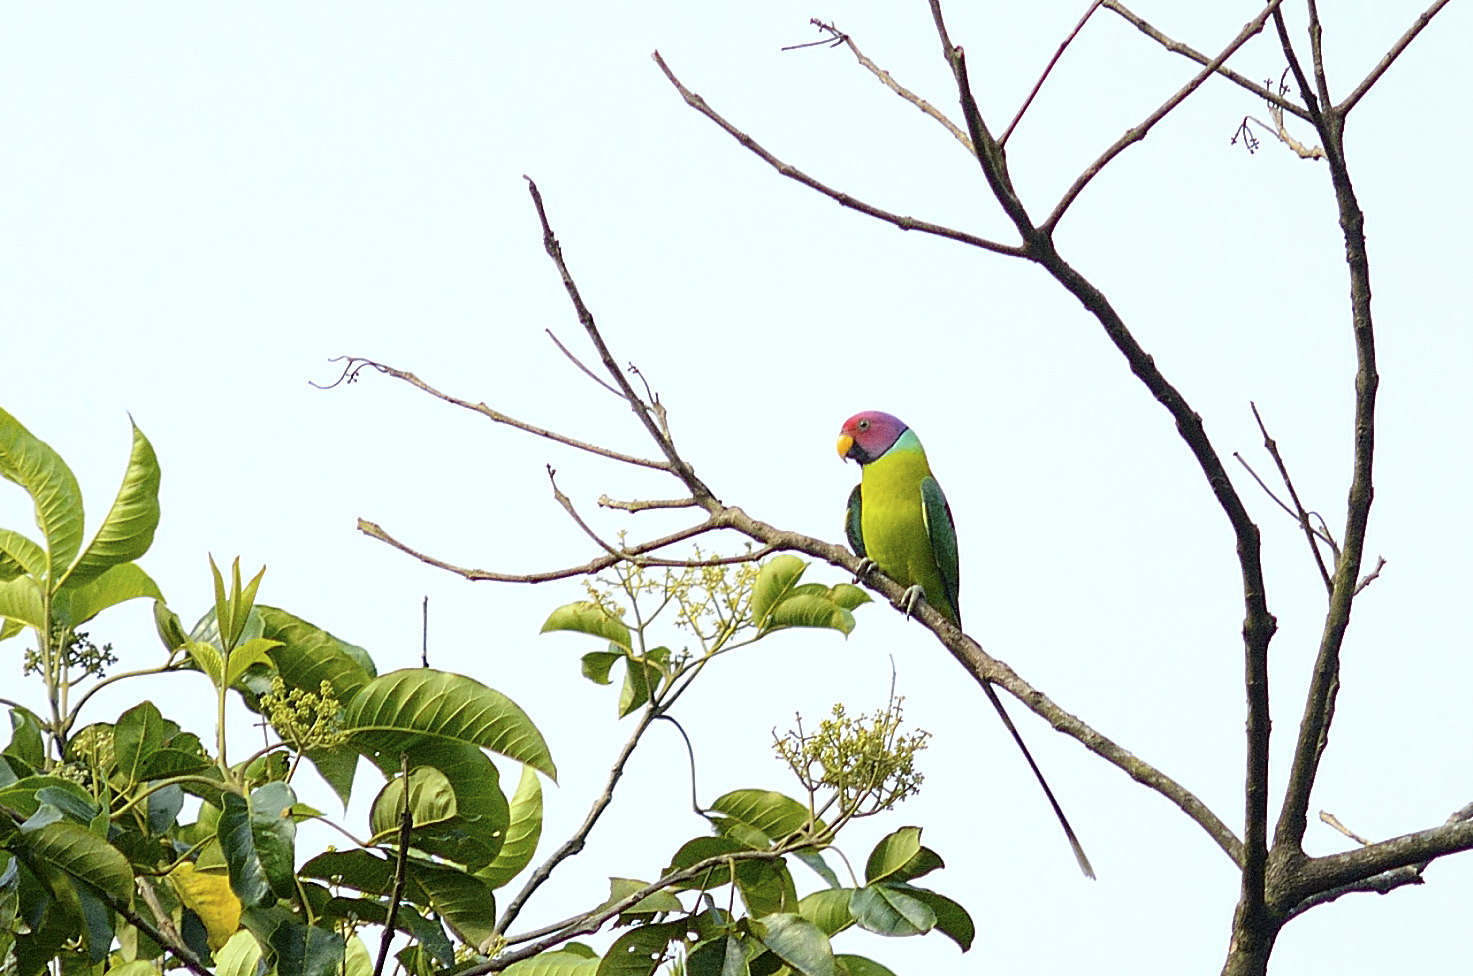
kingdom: Animalia
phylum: Chordata
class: Aves
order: Psittaciformes
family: Psittacidae
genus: Psittacula
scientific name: Psittacula cyanocephala
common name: Plum-headed parakeet
